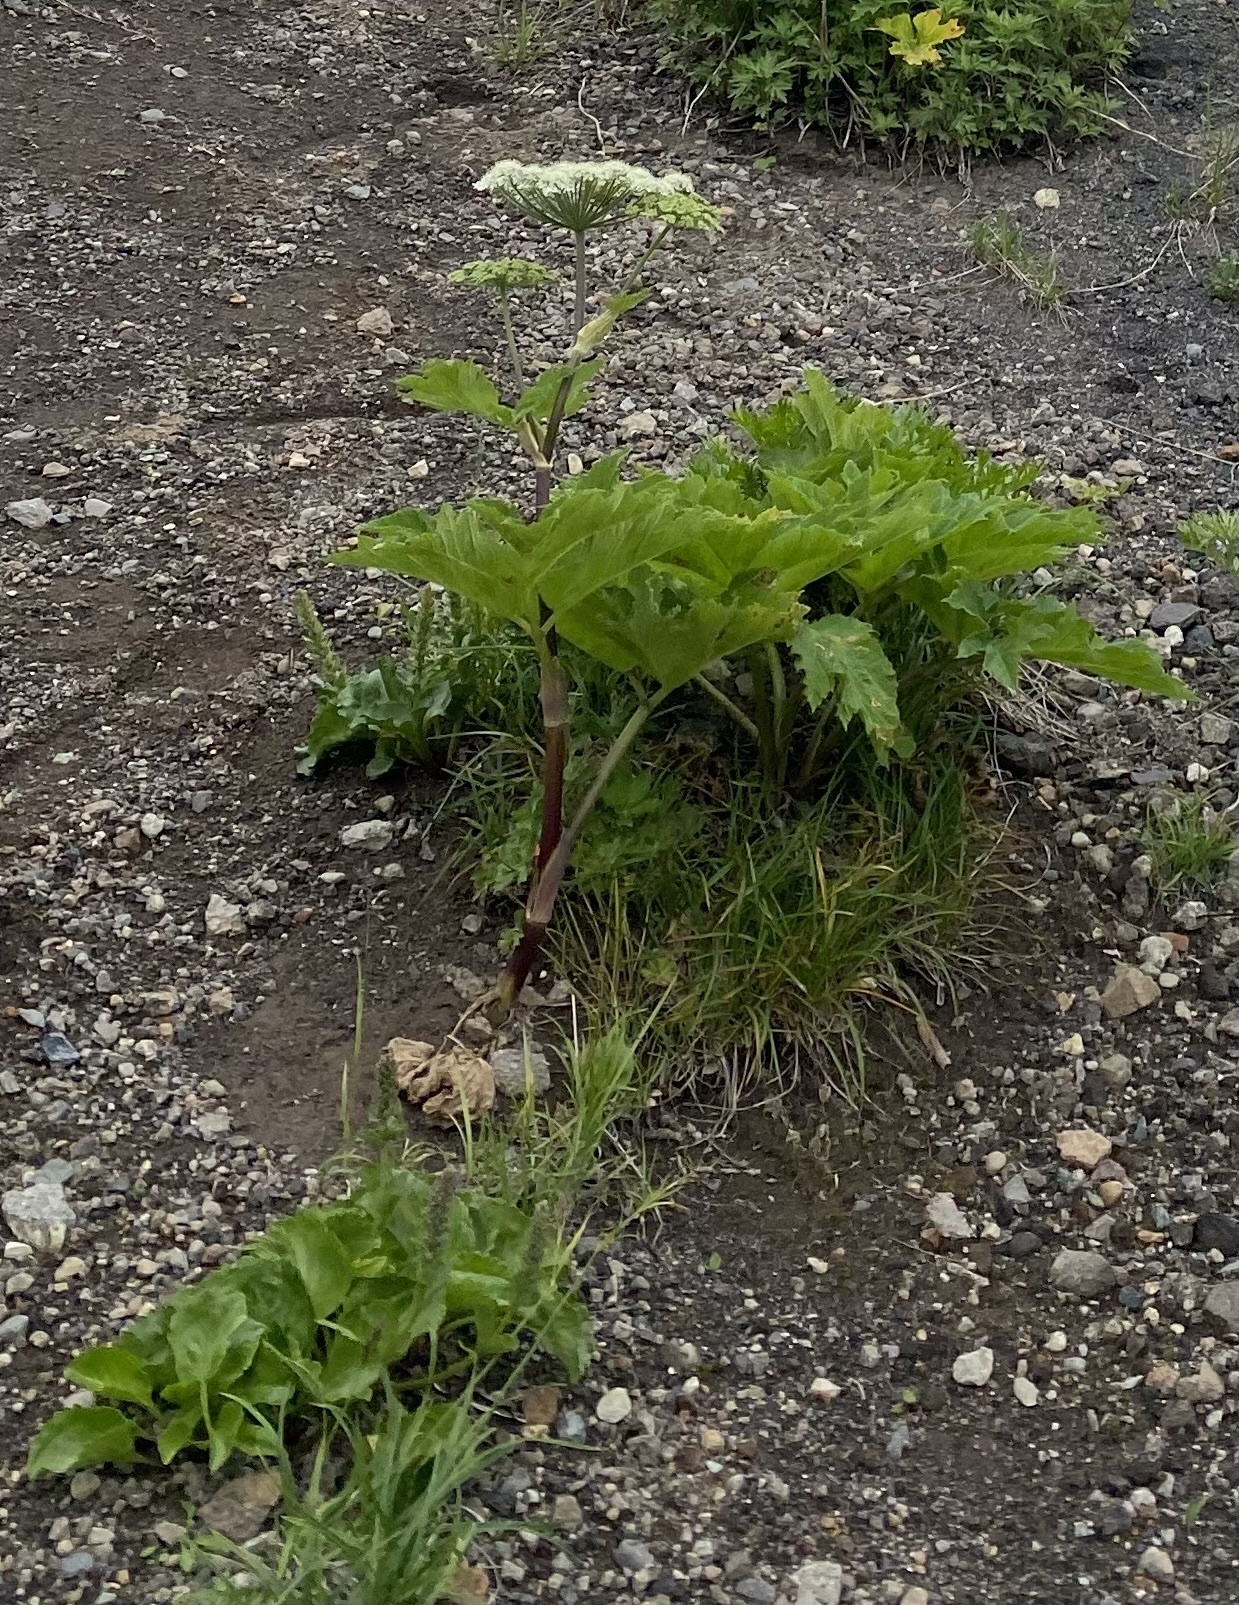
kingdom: Plantae
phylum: Tracheophyta
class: Magnoliopsida
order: Apiales
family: Apiaceae
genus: Heracleum
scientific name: Heracleum maximum
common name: American cow parsnip
